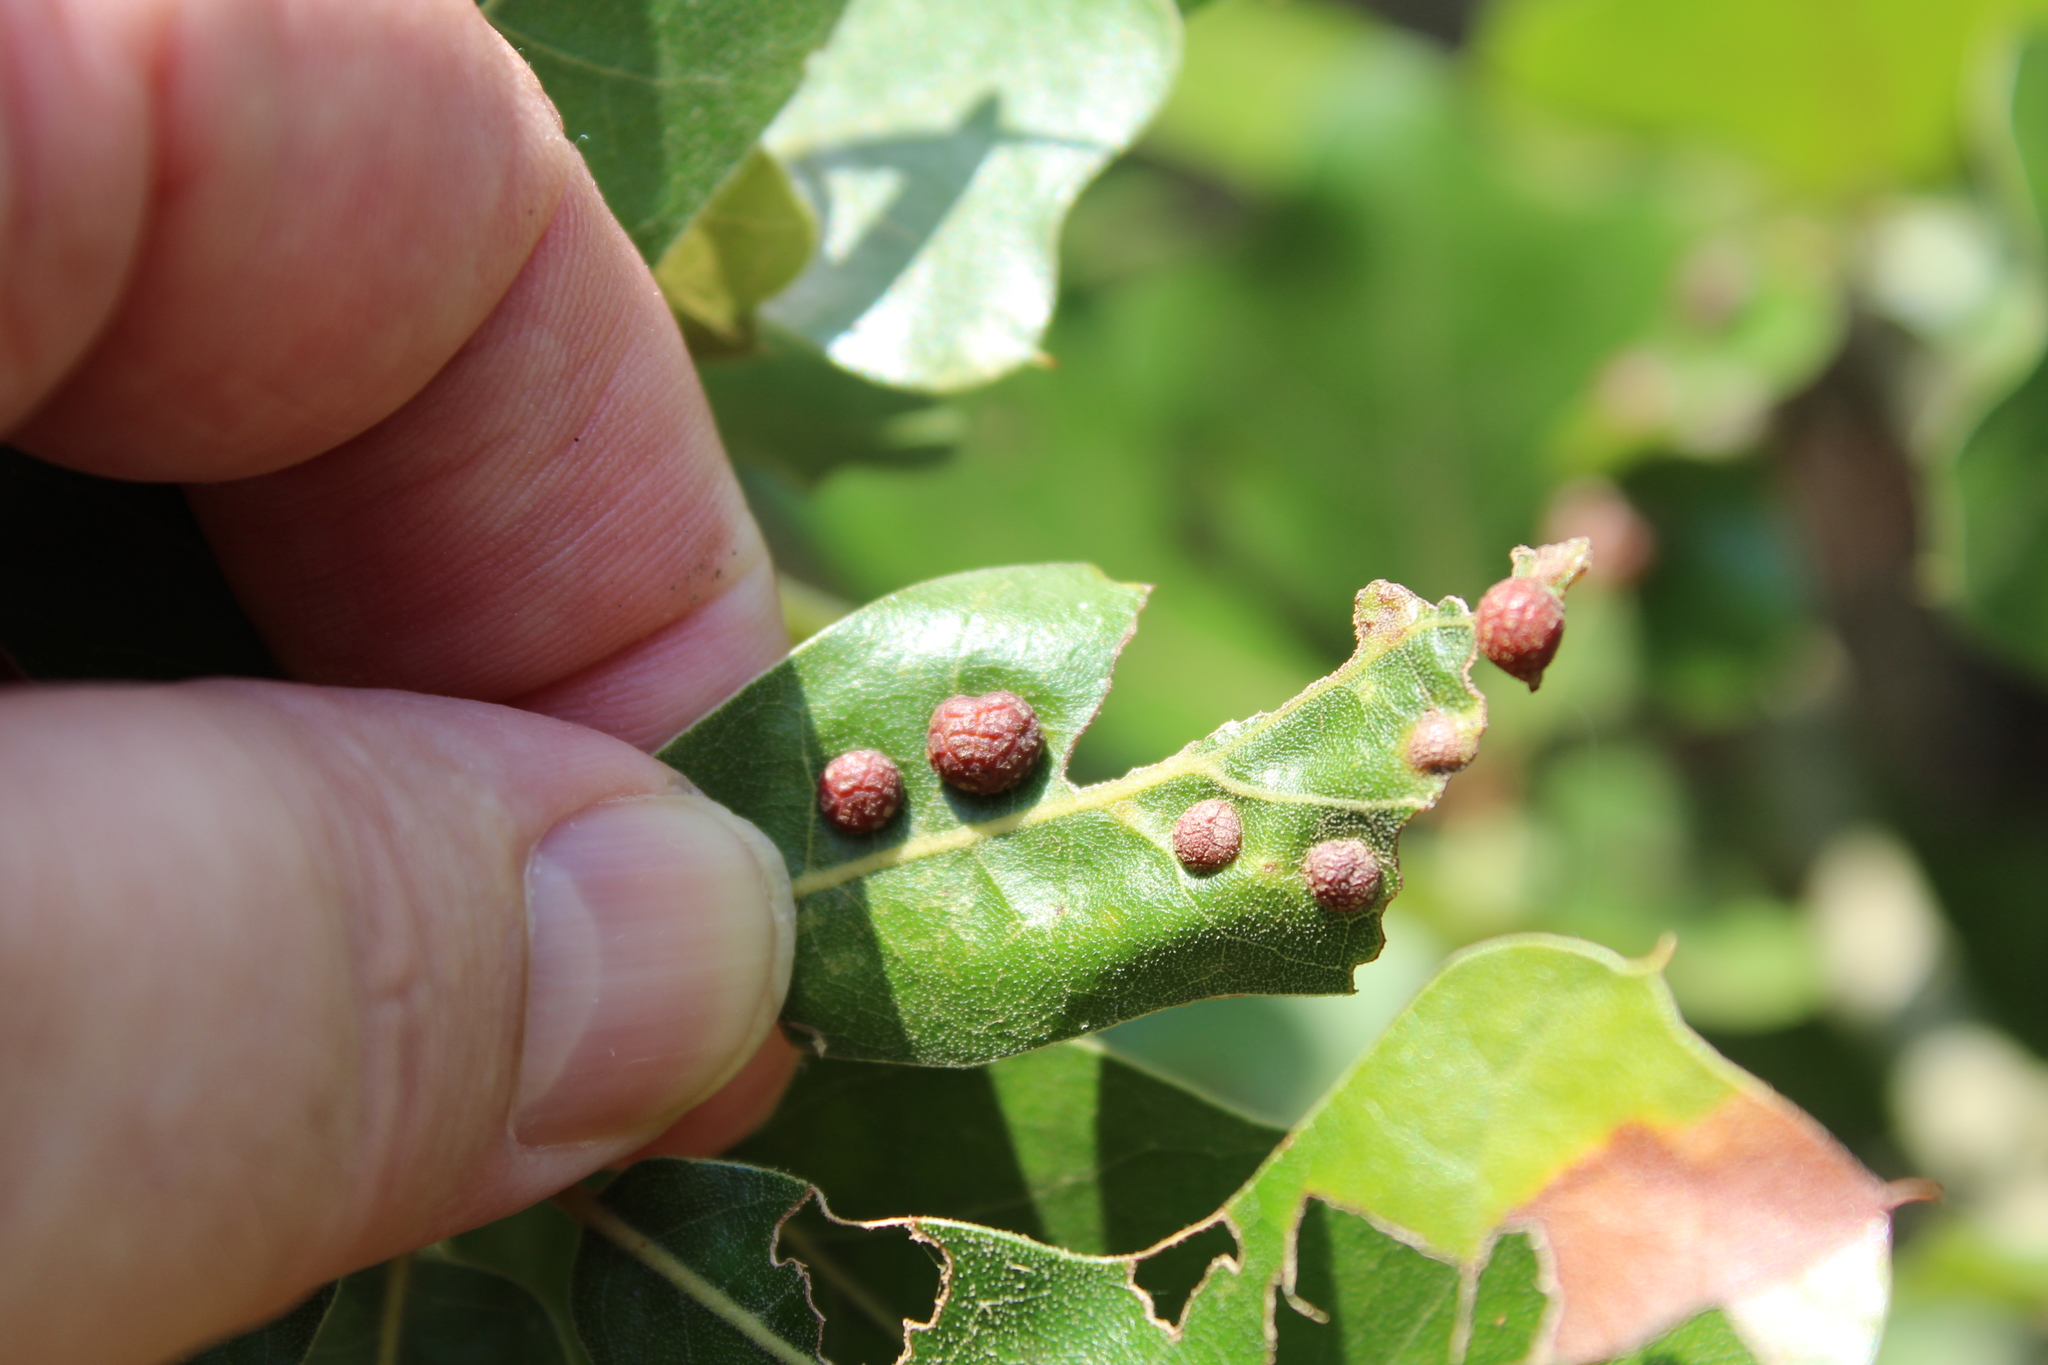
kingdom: Animalia
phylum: Arthropoda
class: Insecta
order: Diptera
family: Cecidomyiidae
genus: Polystepha
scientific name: Polystepha pilulae
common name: Oak leaf gall midge
